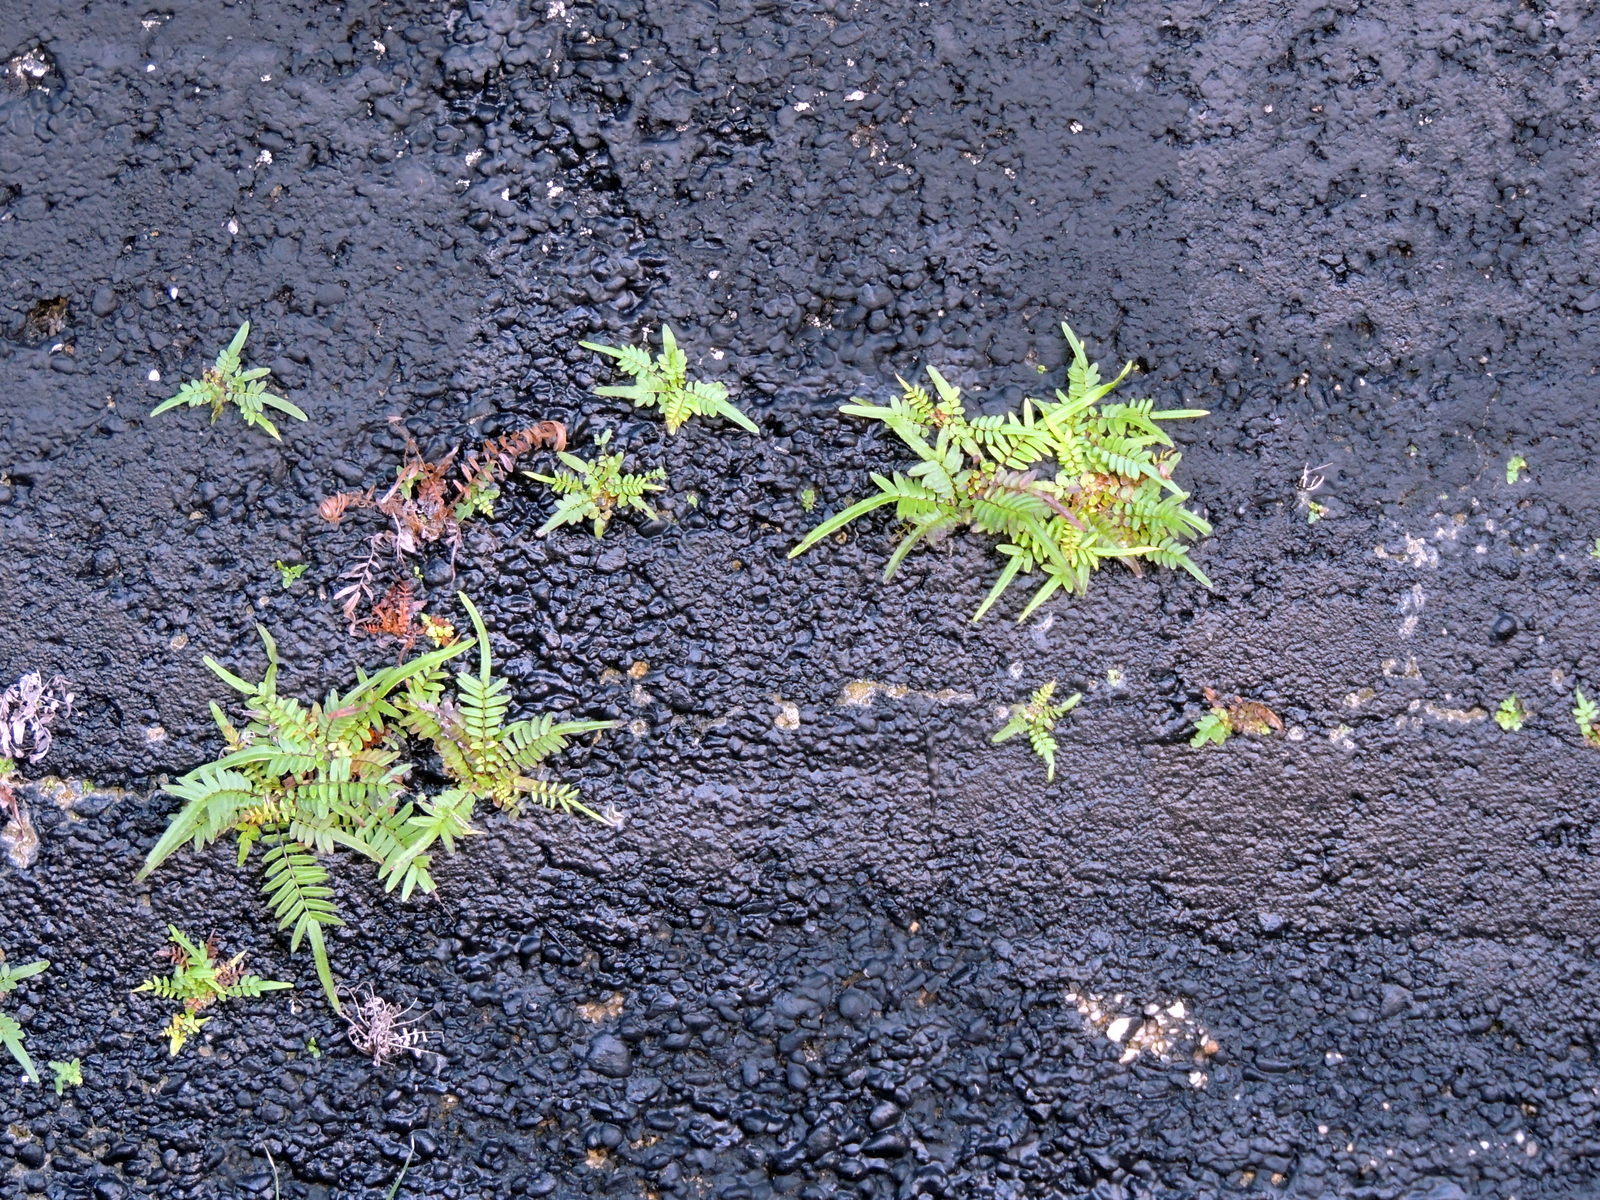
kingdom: Plantae
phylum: Tracheophyta
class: Polypodiopsida
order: Polypodiales
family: Pteridaceae
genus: Pteris
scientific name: Pteris vittata
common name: Ladder brake
